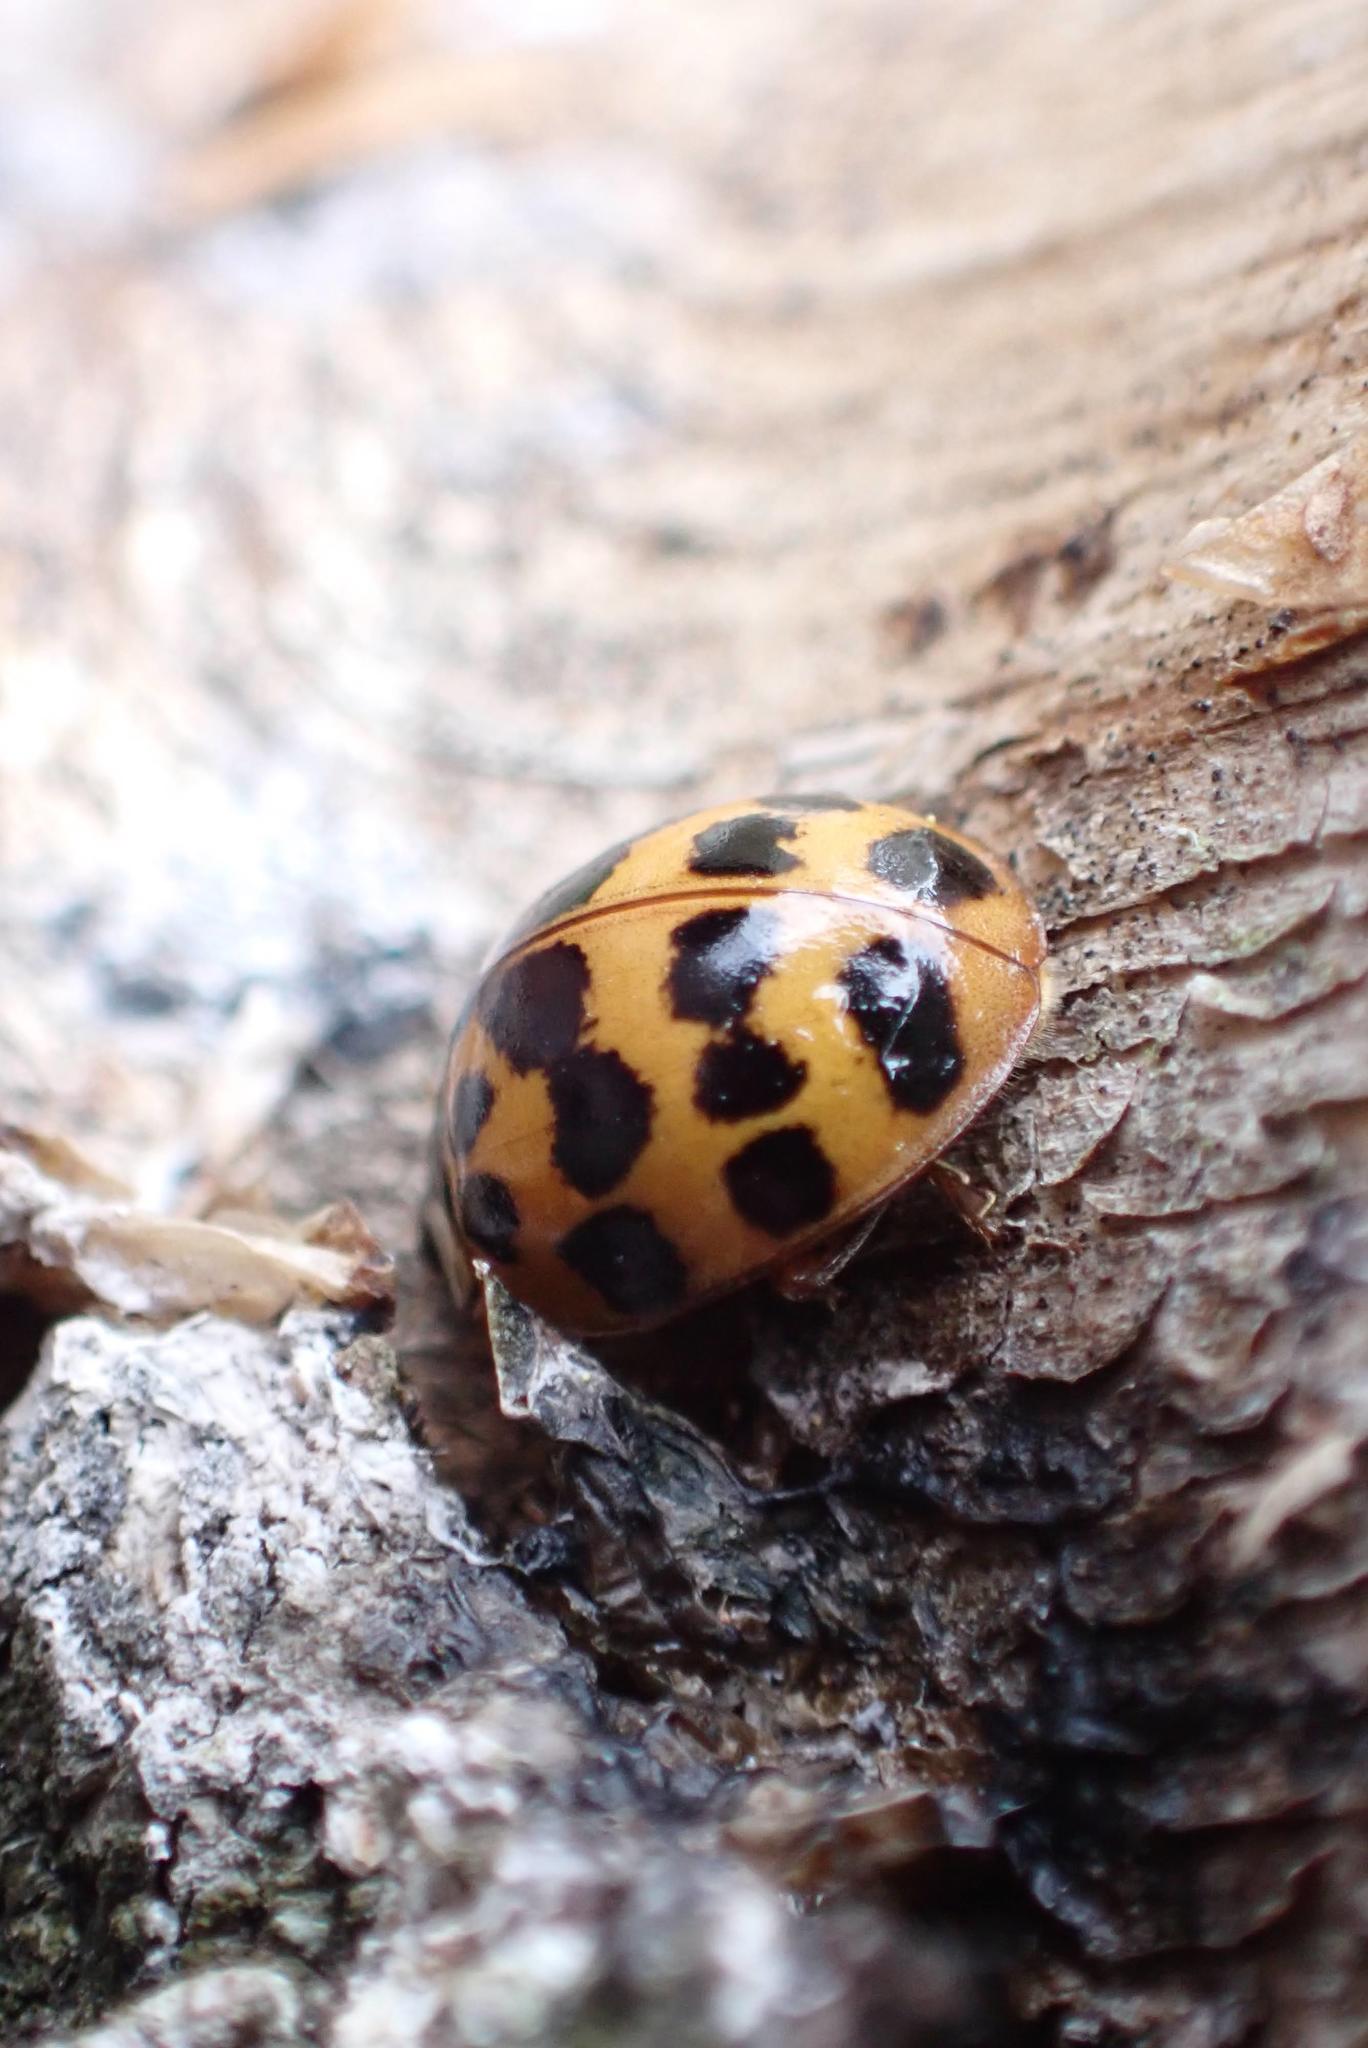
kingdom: Animalia
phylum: Arthropoda
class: Insecta
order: Coleoptera
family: Coccinellidae
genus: Coccinella
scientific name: Coccinella undecimpunctata
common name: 11-spot ladybird
